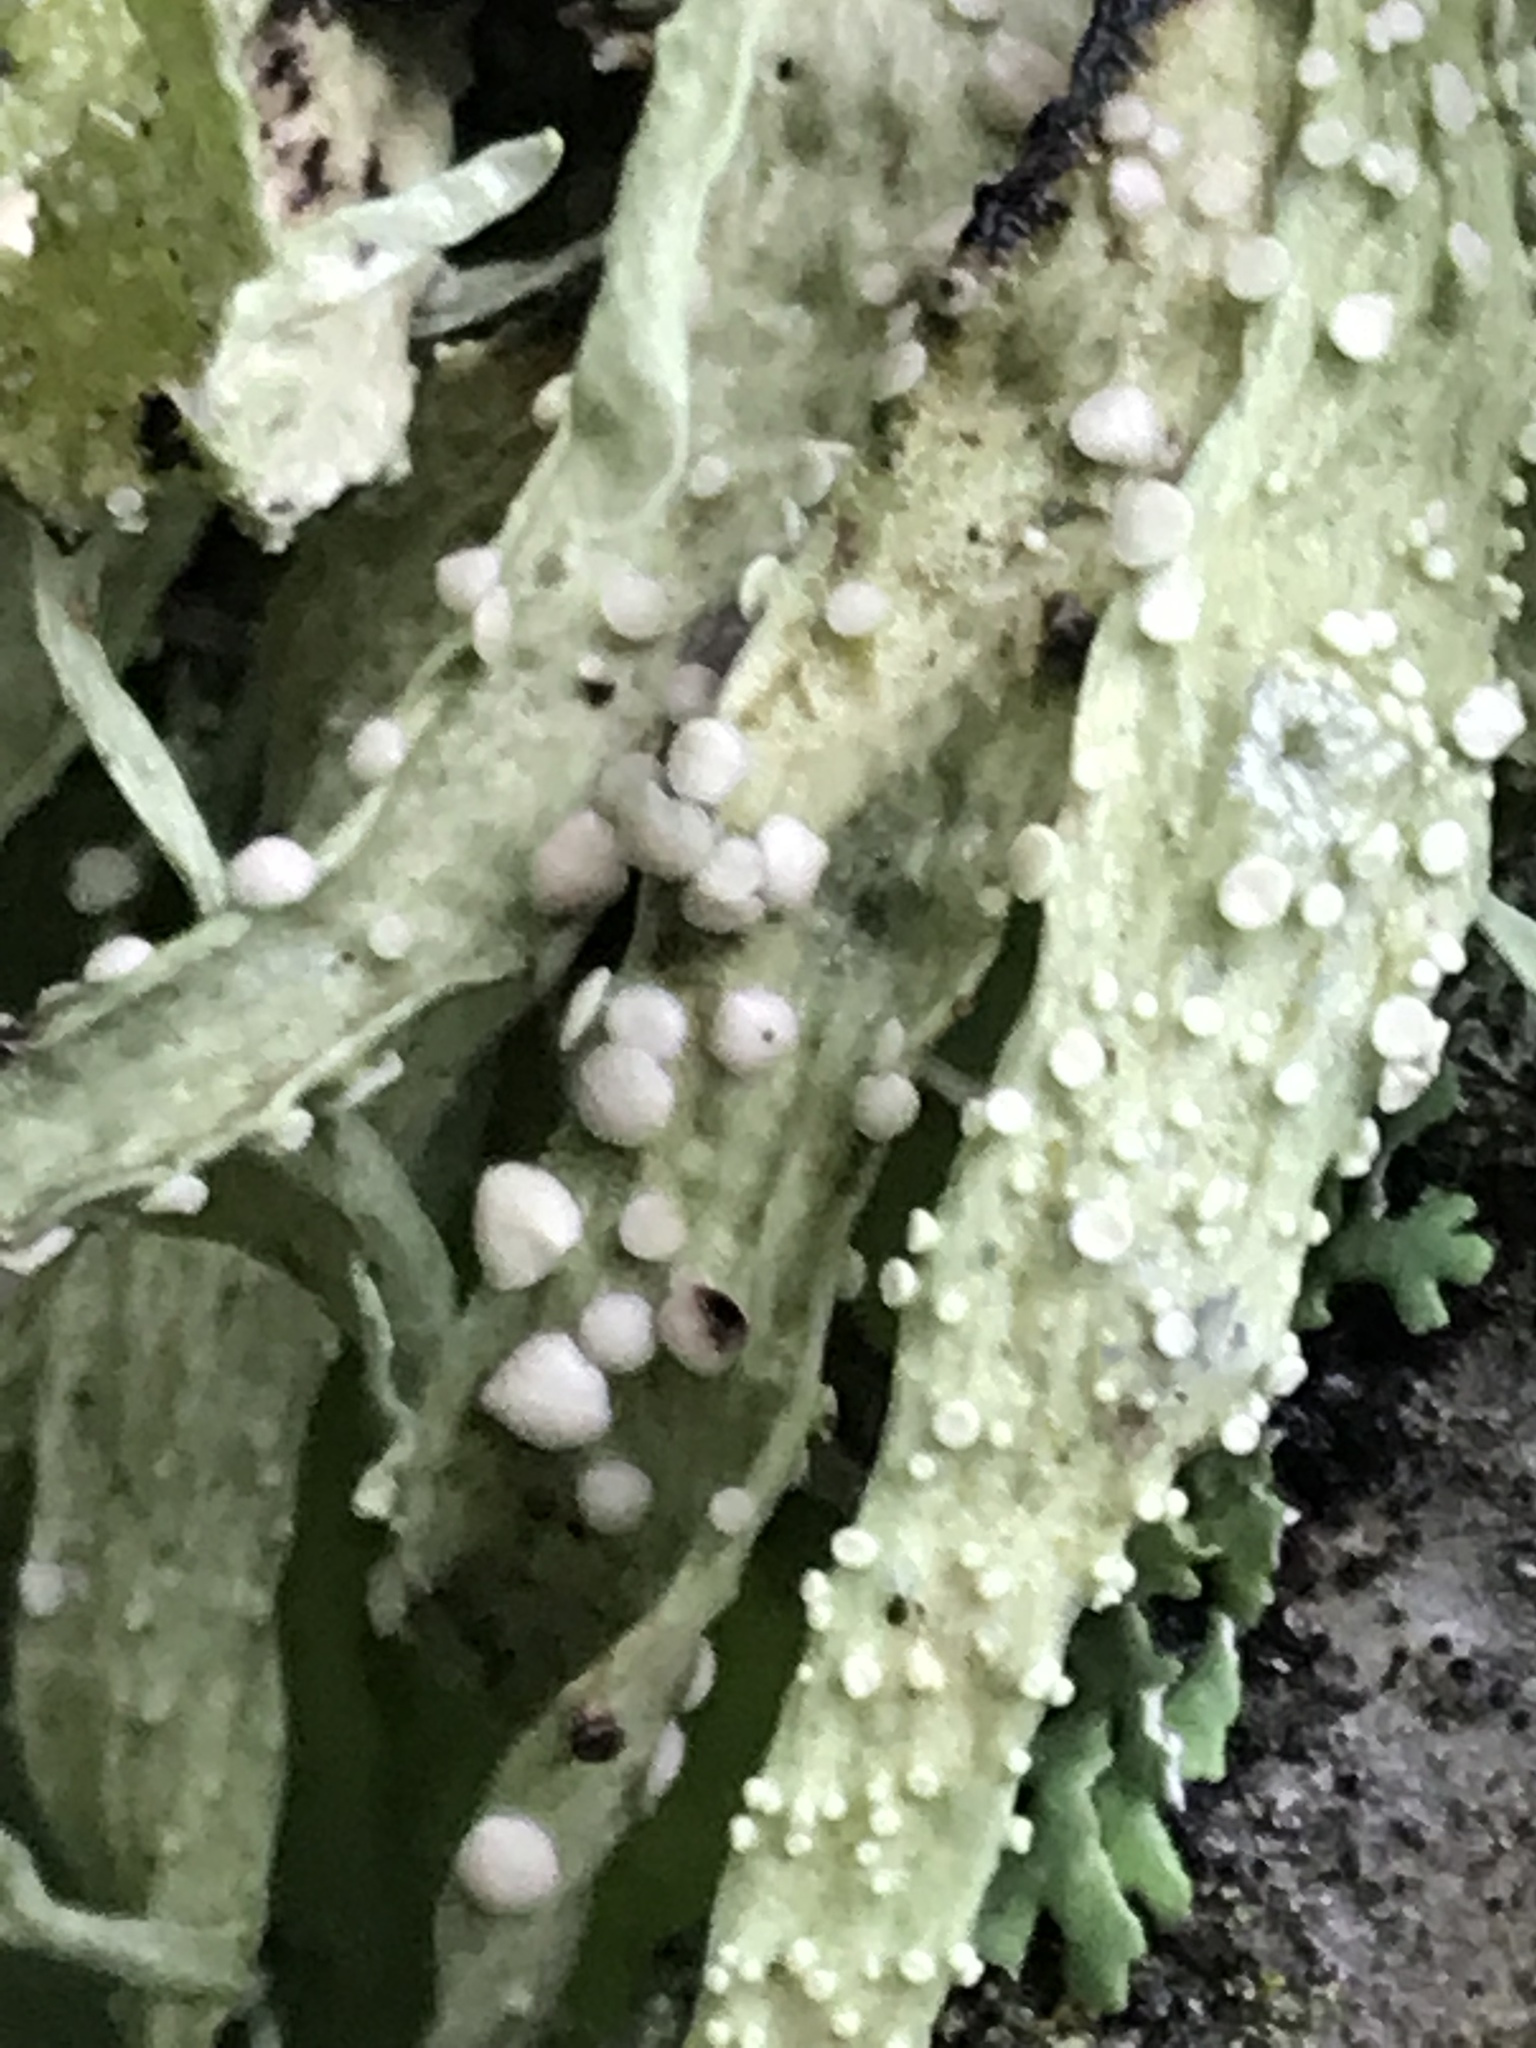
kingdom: Fungi
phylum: Ascomycota
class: Lecanoromycetes
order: Lecanorales
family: Ramalinaceae
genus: Ramalina
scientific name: Ramalina celastri
